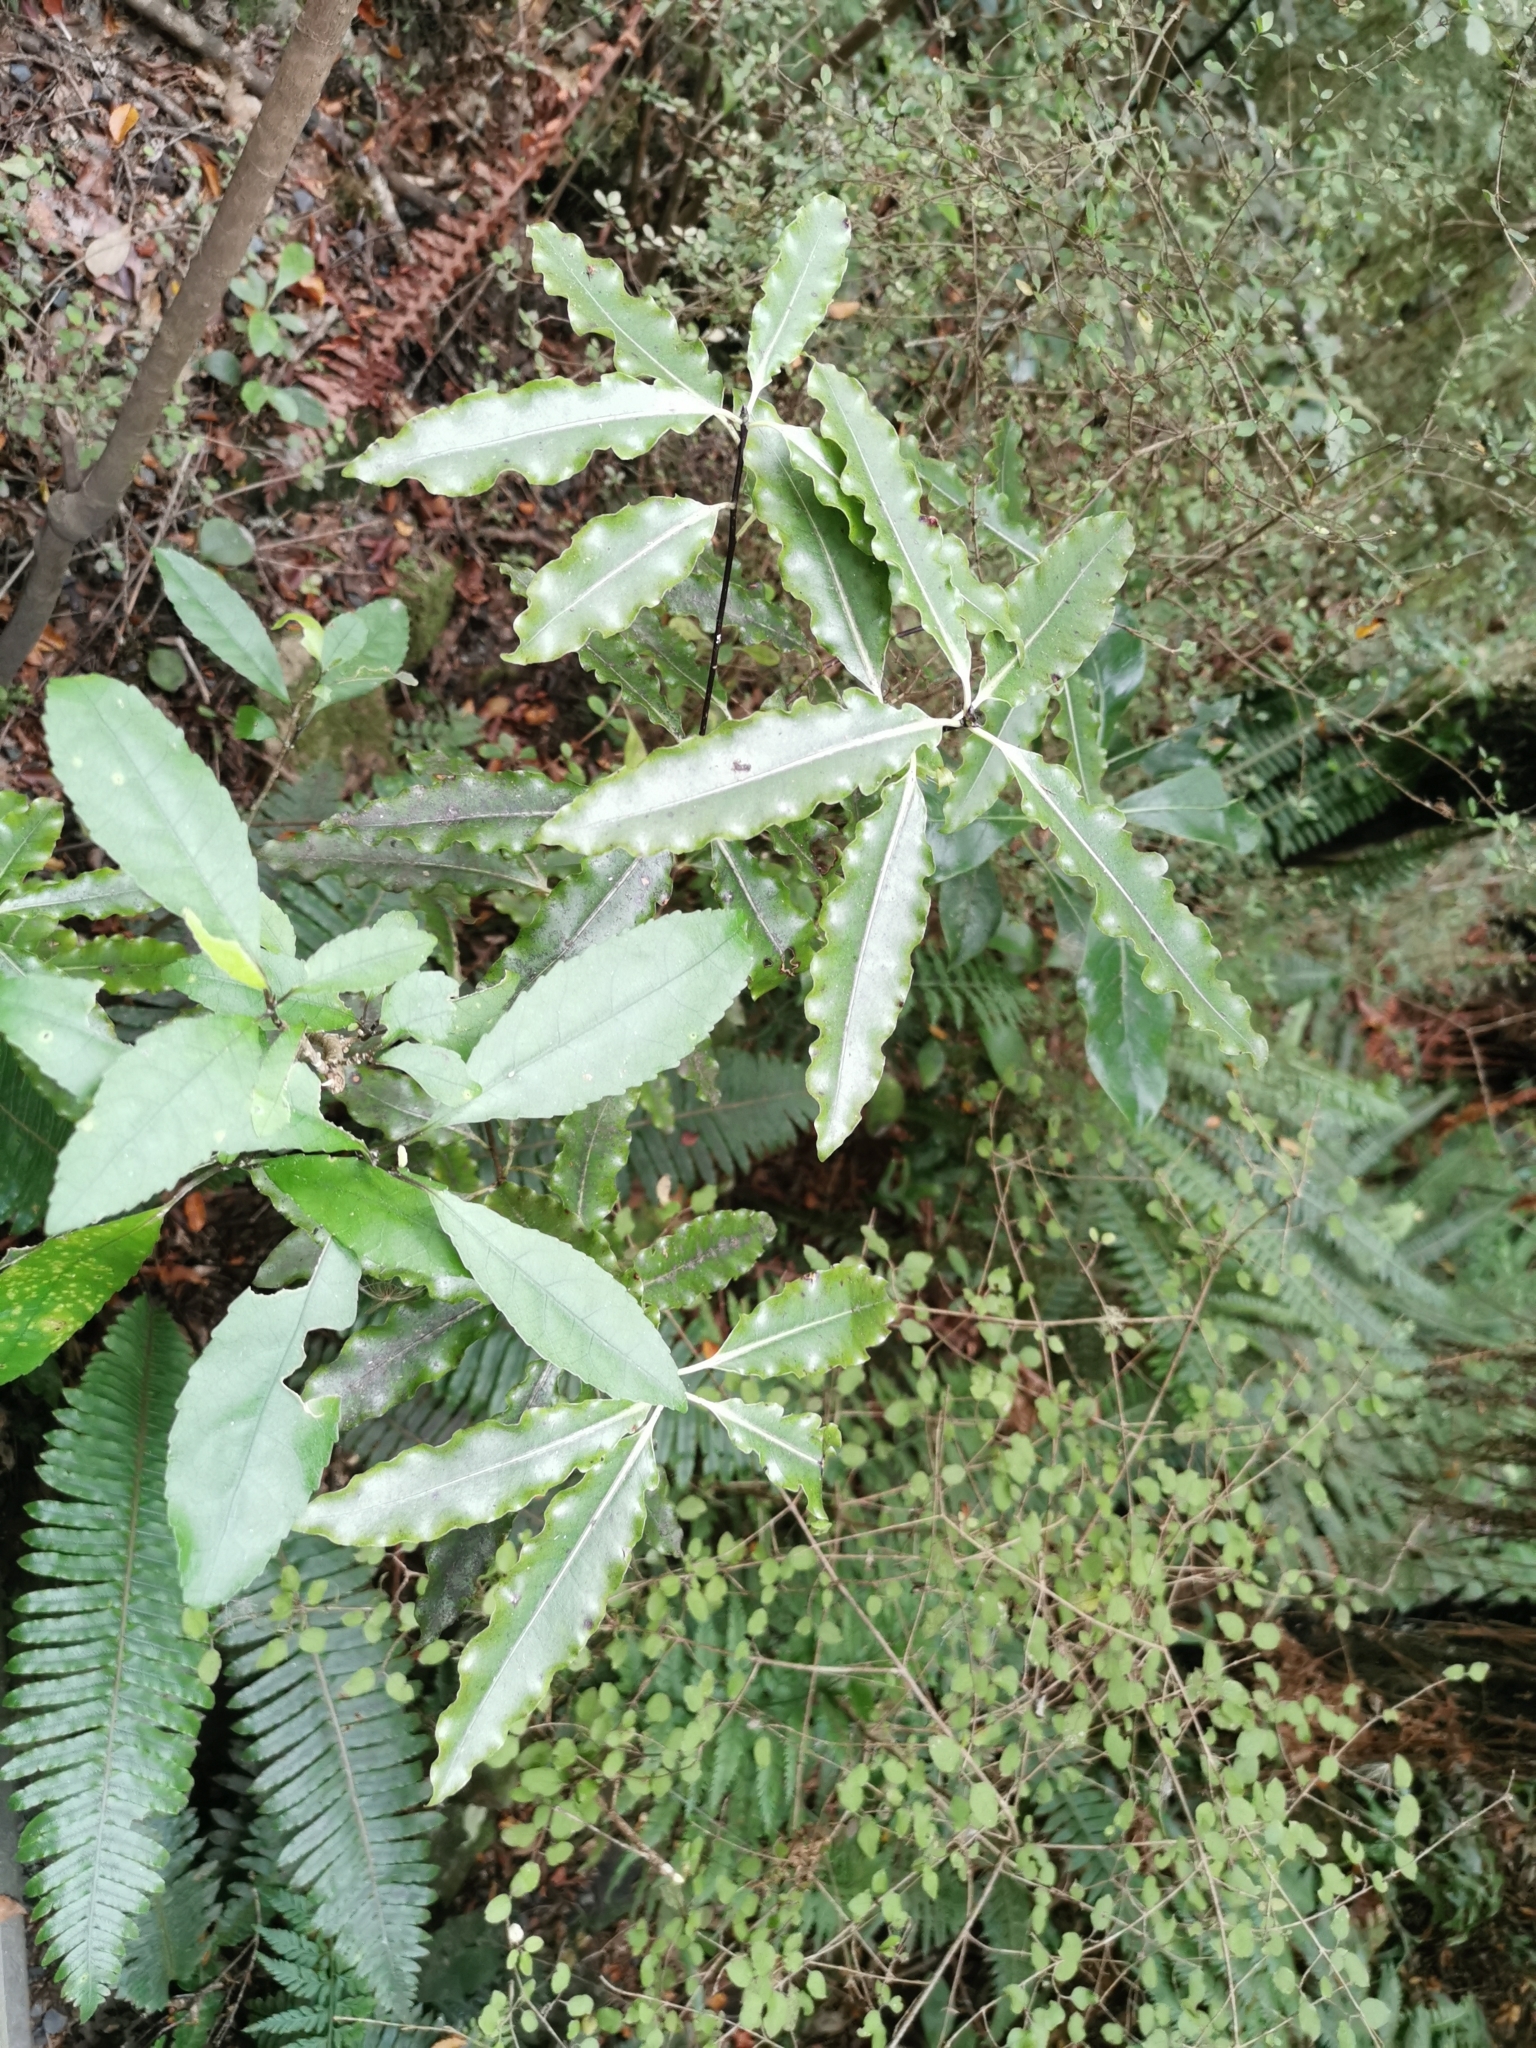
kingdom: Plantae
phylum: Tracheophyta
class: Magnoliopsida
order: Apiales
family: Pittosporaceae
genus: Pittosporum
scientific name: Pittosporum eugenioides
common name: Lemonwood
